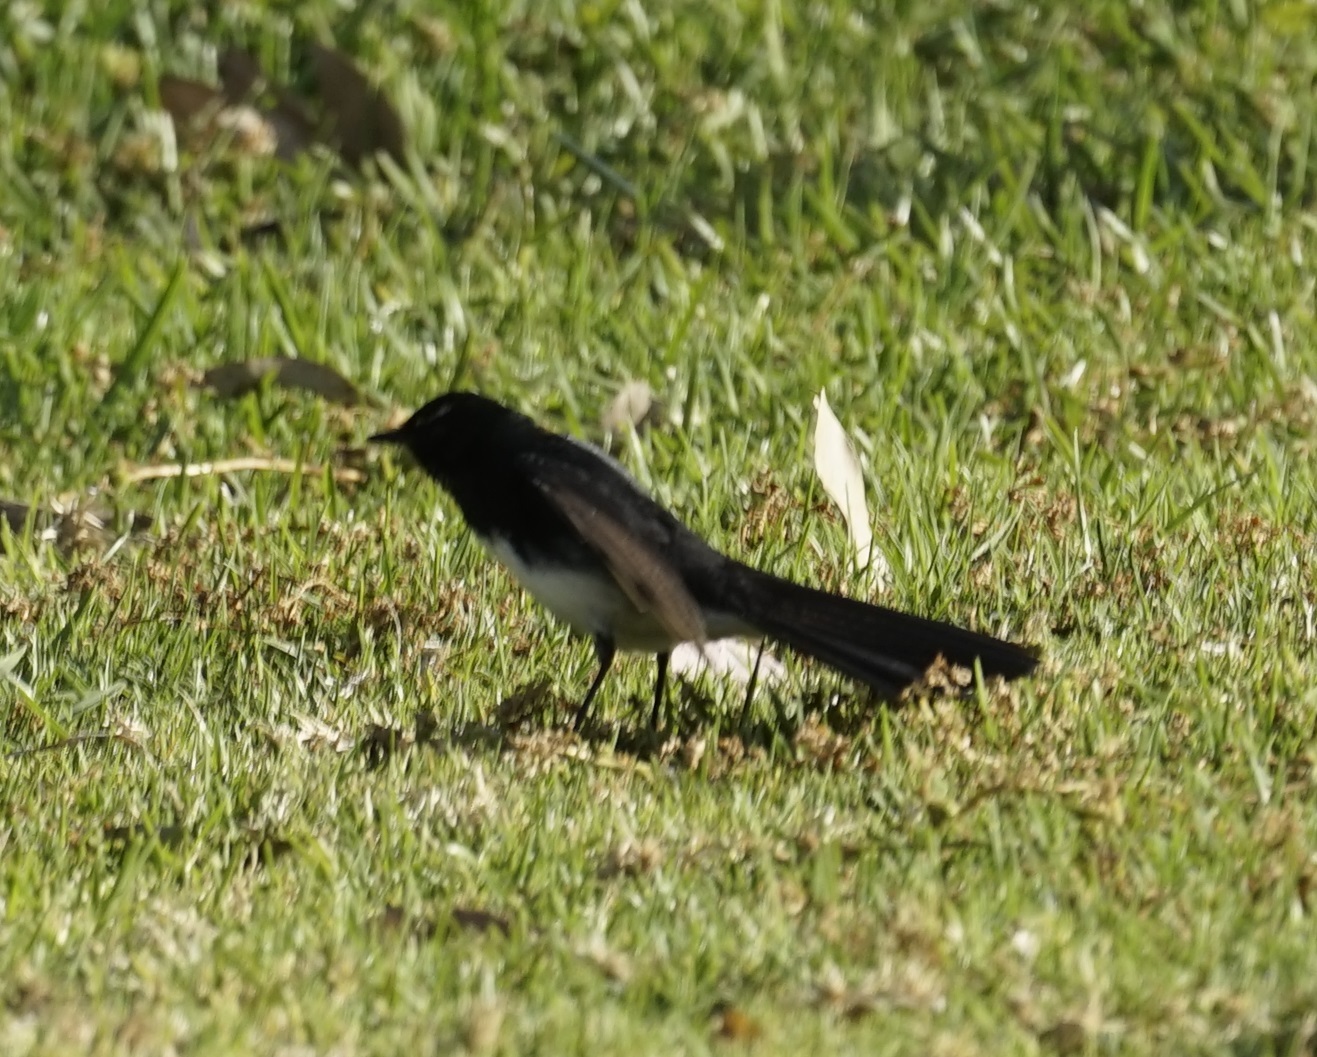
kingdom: Animalia
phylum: Chordata
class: Aves
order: Passeriformes
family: Rhipiduridae
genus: Rhipidura
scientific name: Rhipidura leucophrys
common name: Willie wagtail
